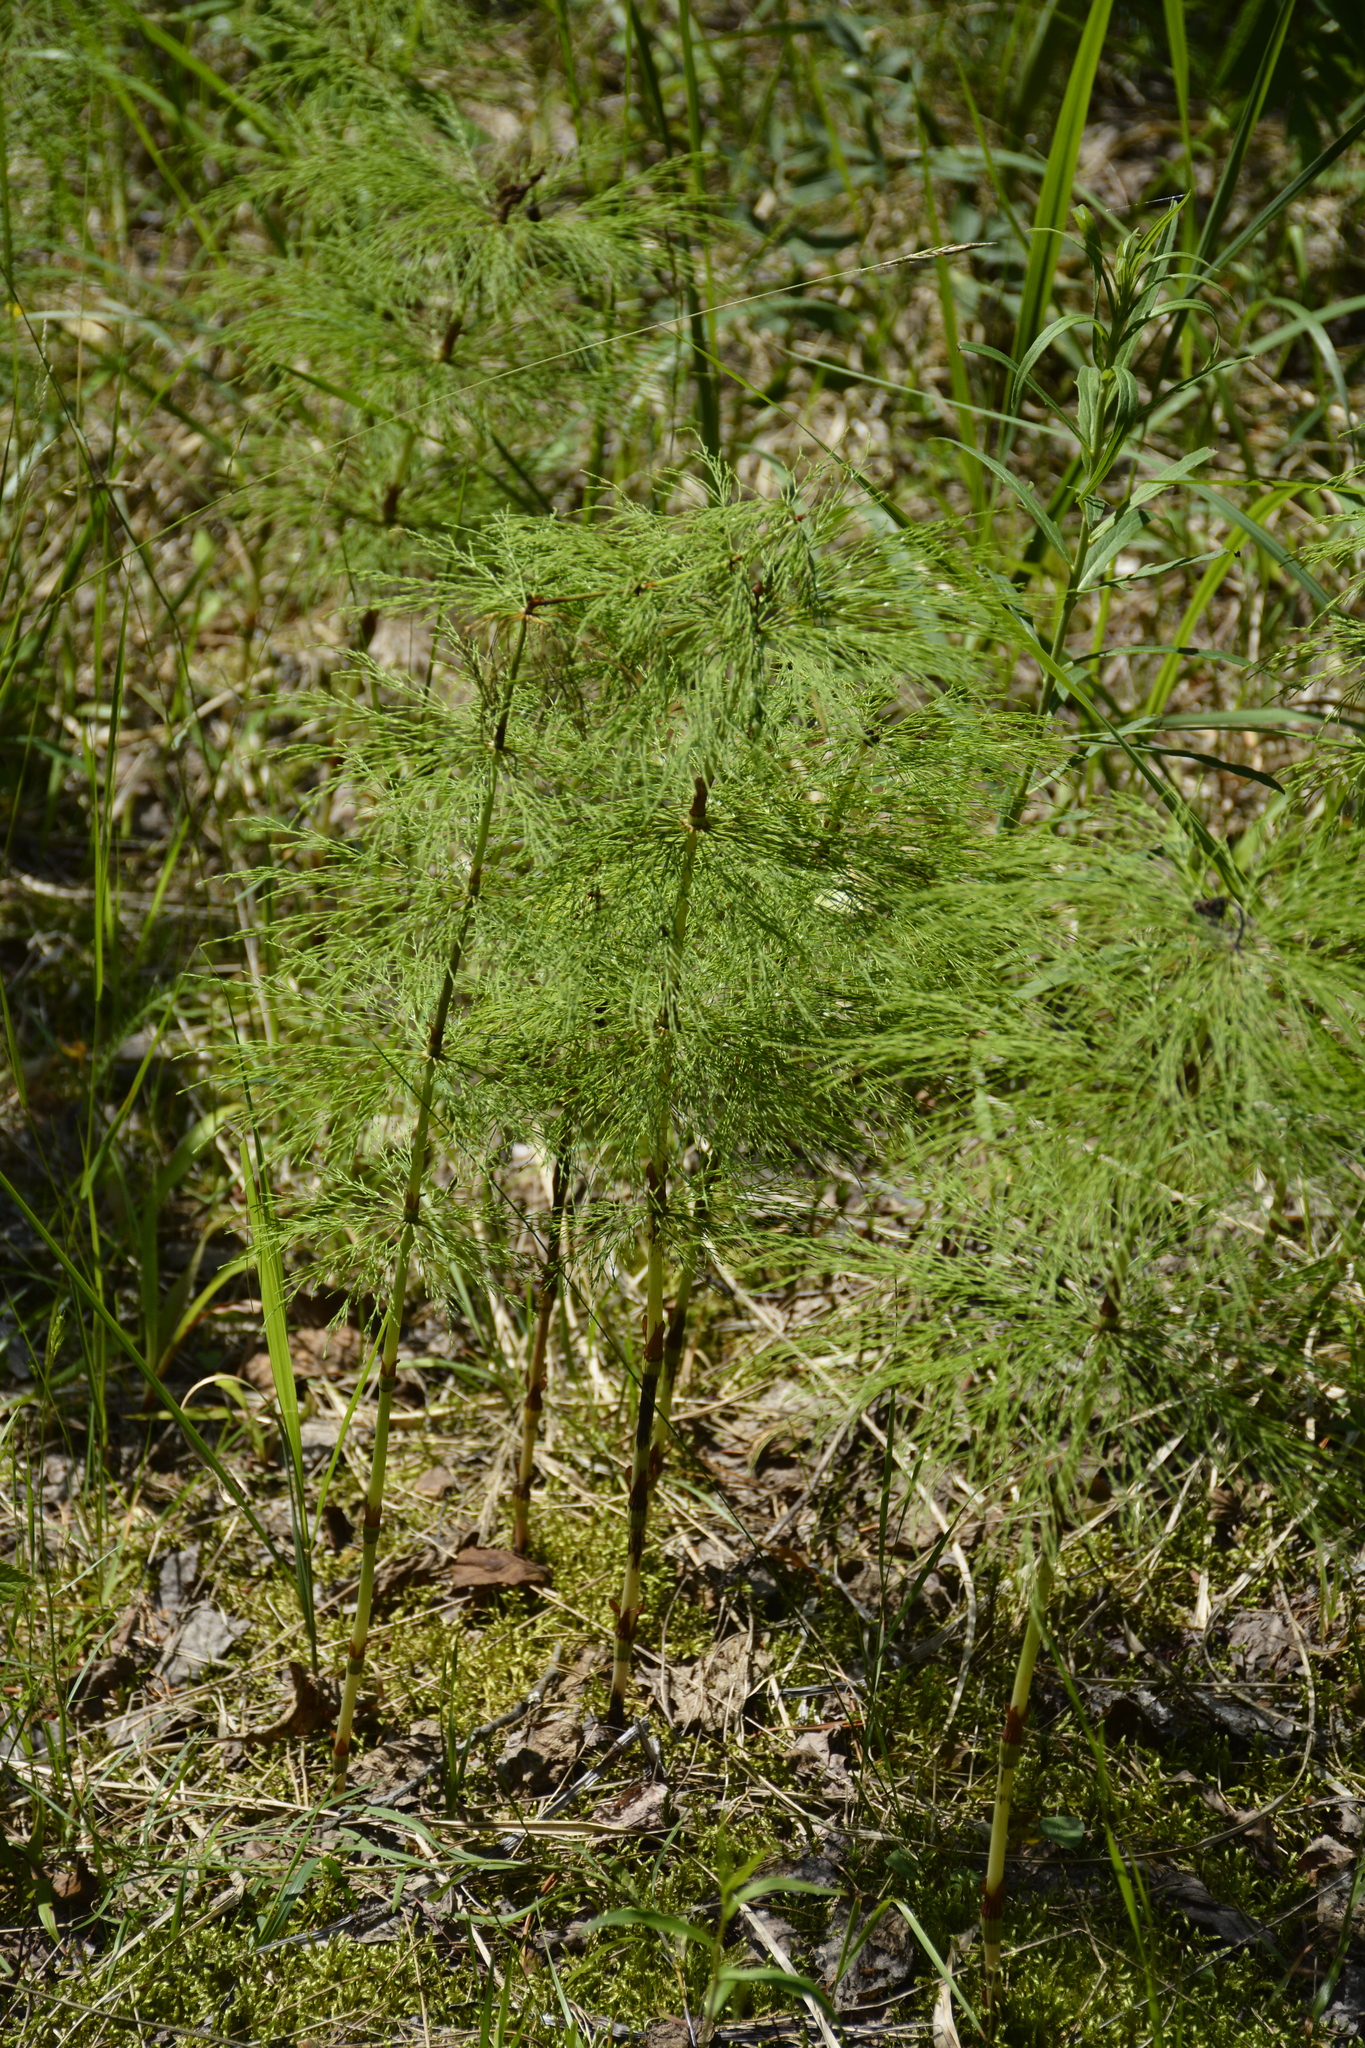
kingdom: Plantae
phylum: Tracheophyta
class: Polypodiopsida
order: Equisetales
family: Equisetaceae
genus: Equisetum
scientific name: Equisetum sylvaticum
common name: Wood horsetail
